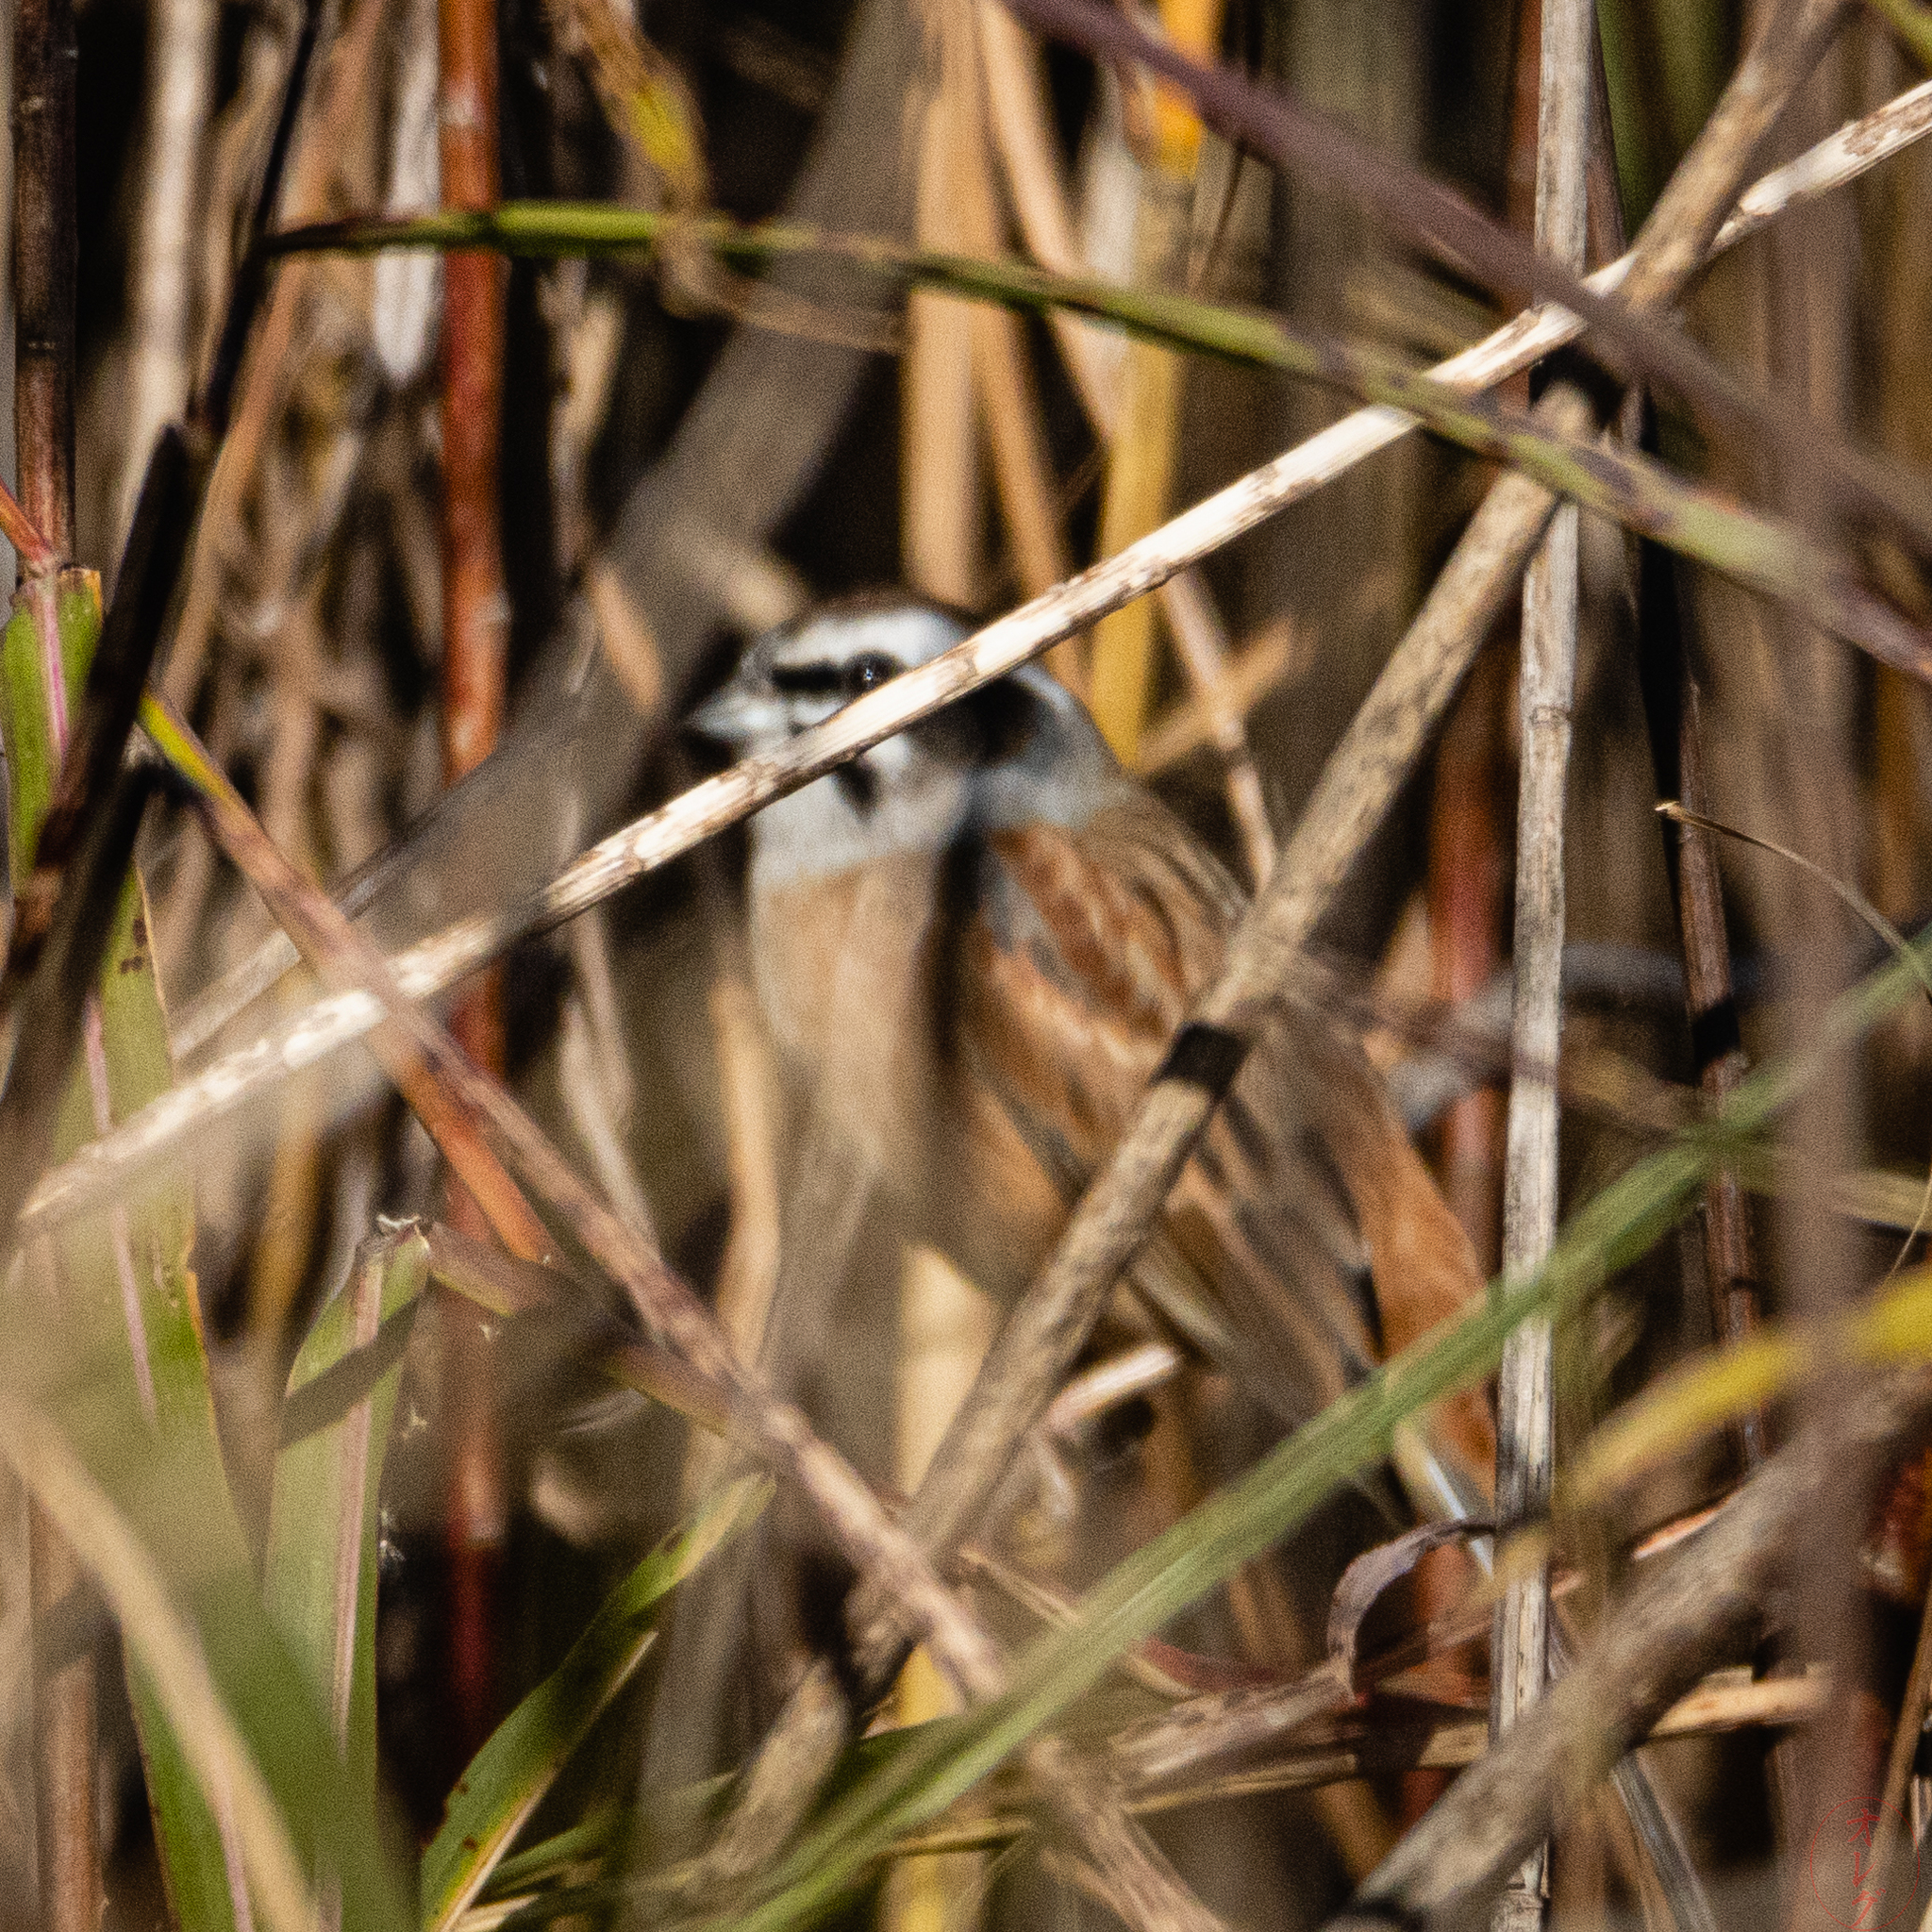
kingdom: Animalia
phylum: Chordata
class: Aves
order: Passeriformes
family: Emberizidae
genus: Emberiza
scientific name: Emberiza cioides
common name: Meadow bunting
